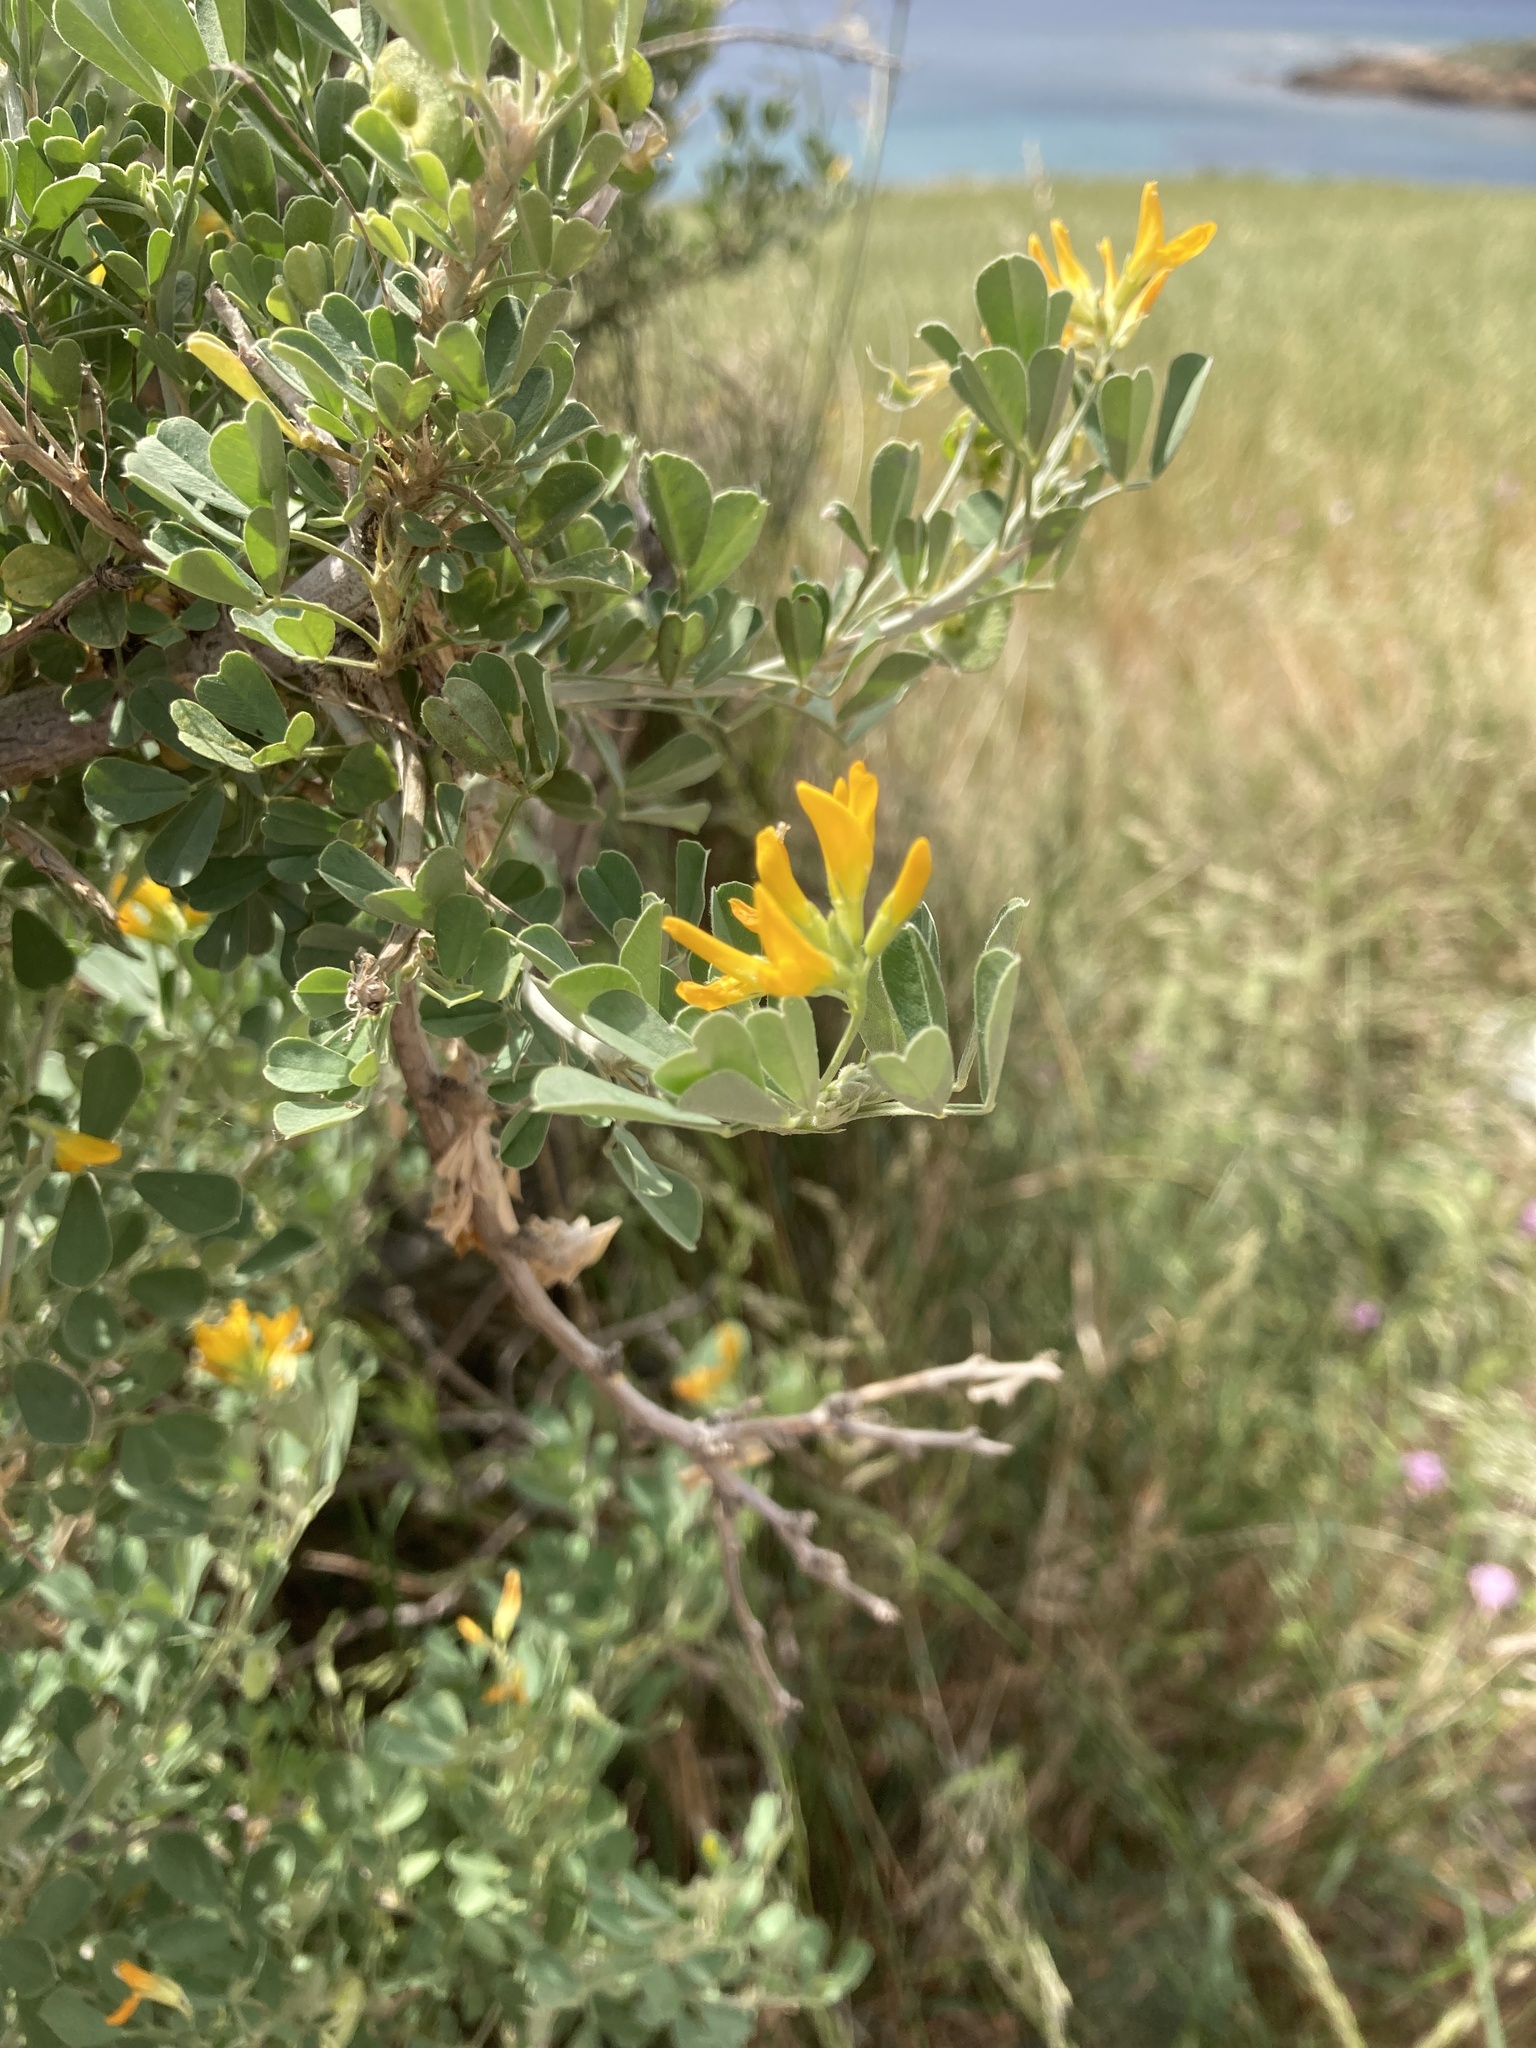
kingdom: Plantae
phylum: Tracheophyta
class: Magnoliopsida
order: Fabales
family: Fabaceae
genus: Medicago
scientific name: Medicago arborea
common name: Moon trefoil
